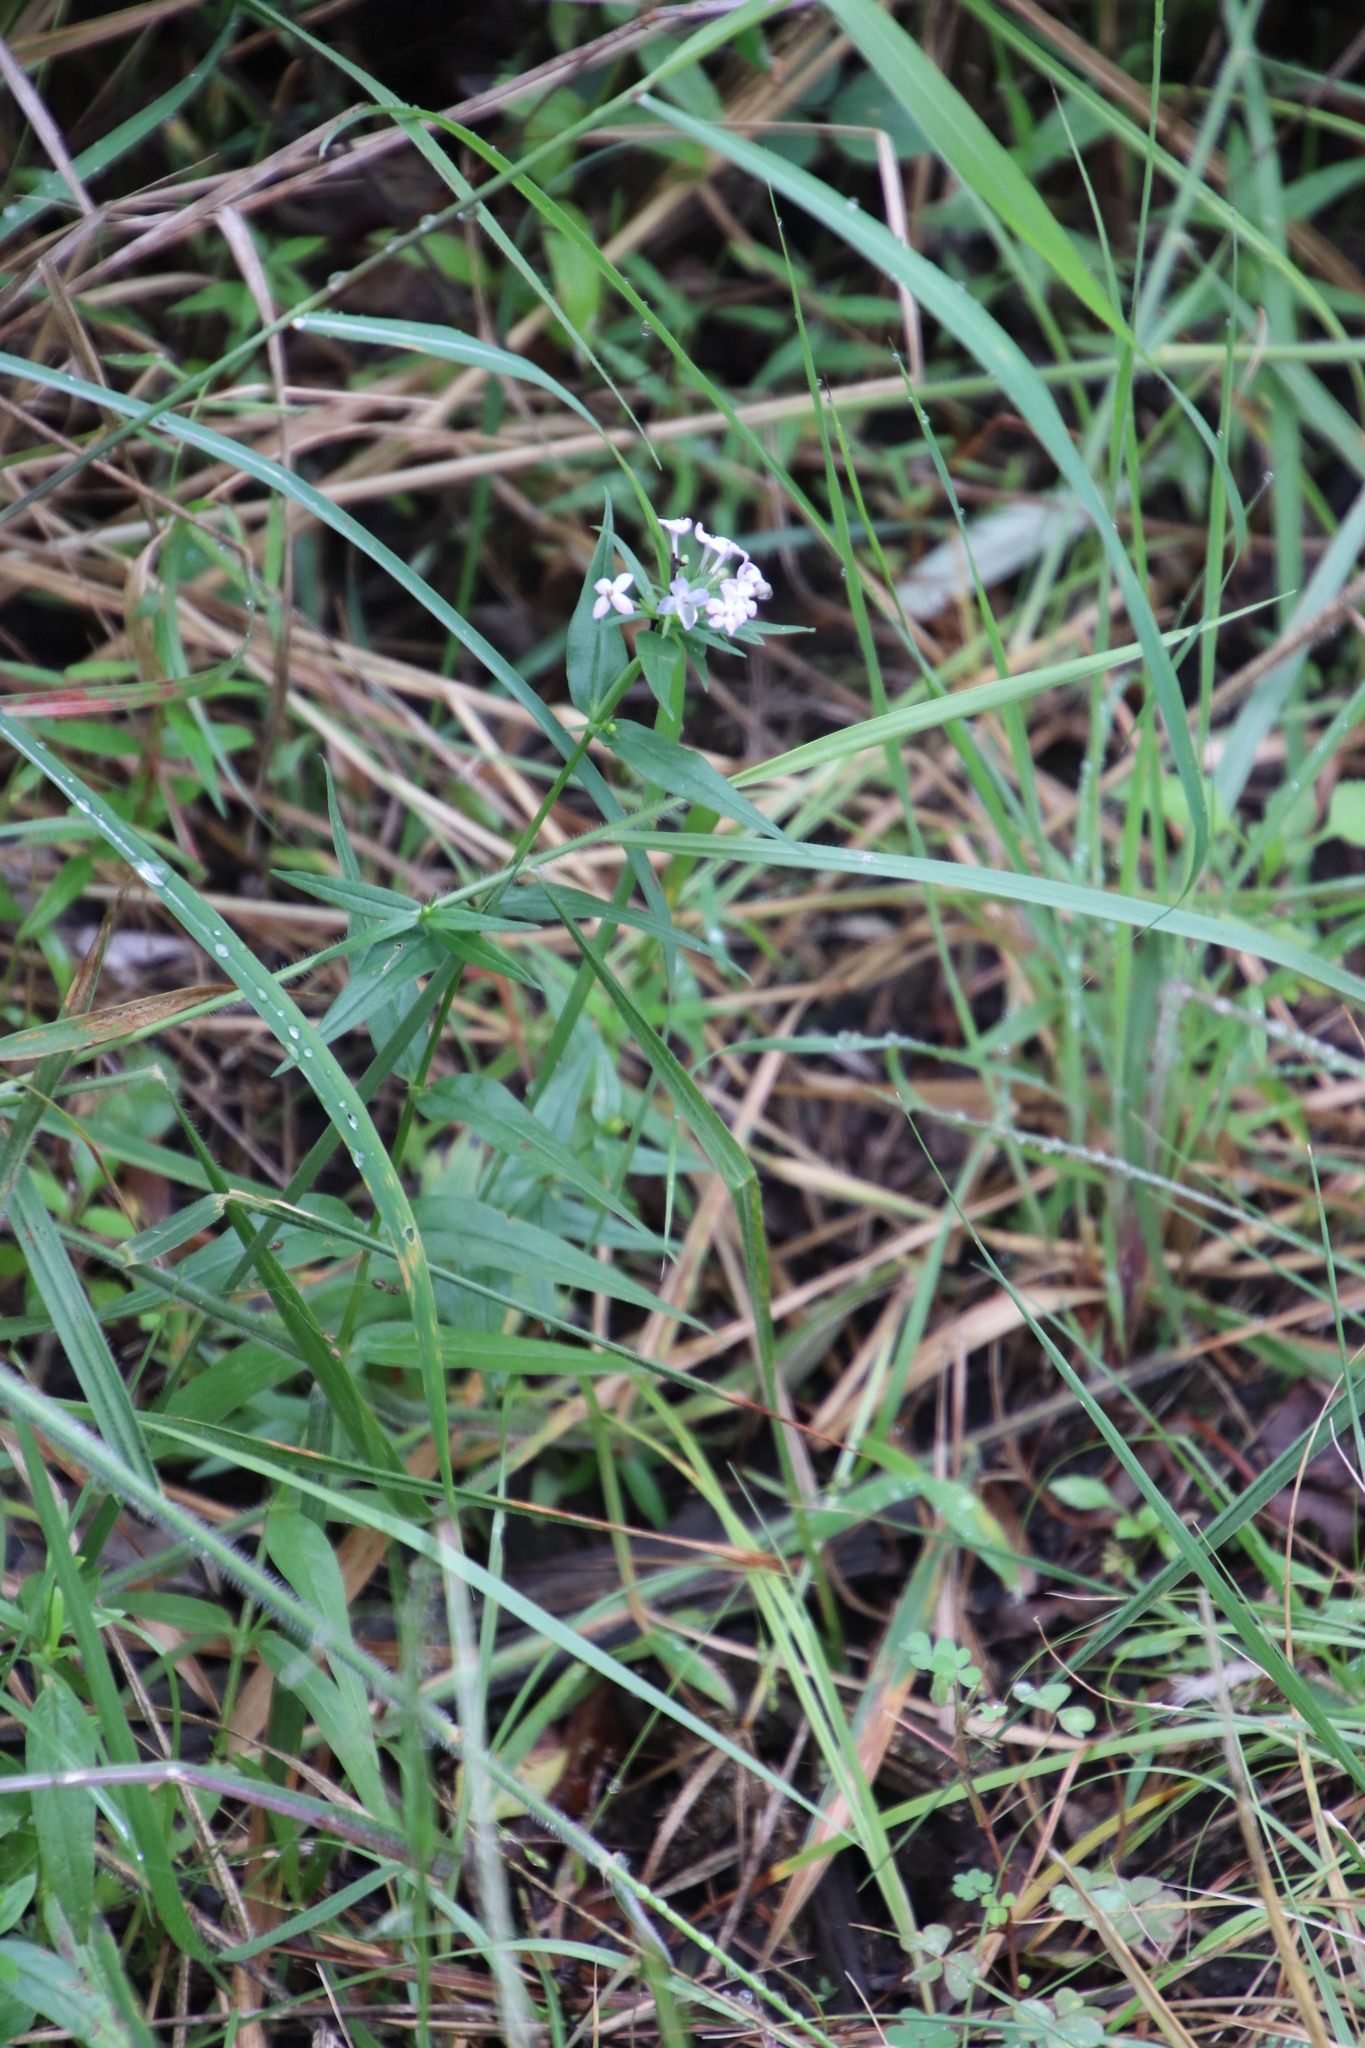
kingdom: Plantae
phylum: Tracheophyta
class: Magnoliopsida
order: Gentianales
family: Rubiaceae
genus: Conostomium
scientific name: Conostomium natalense
